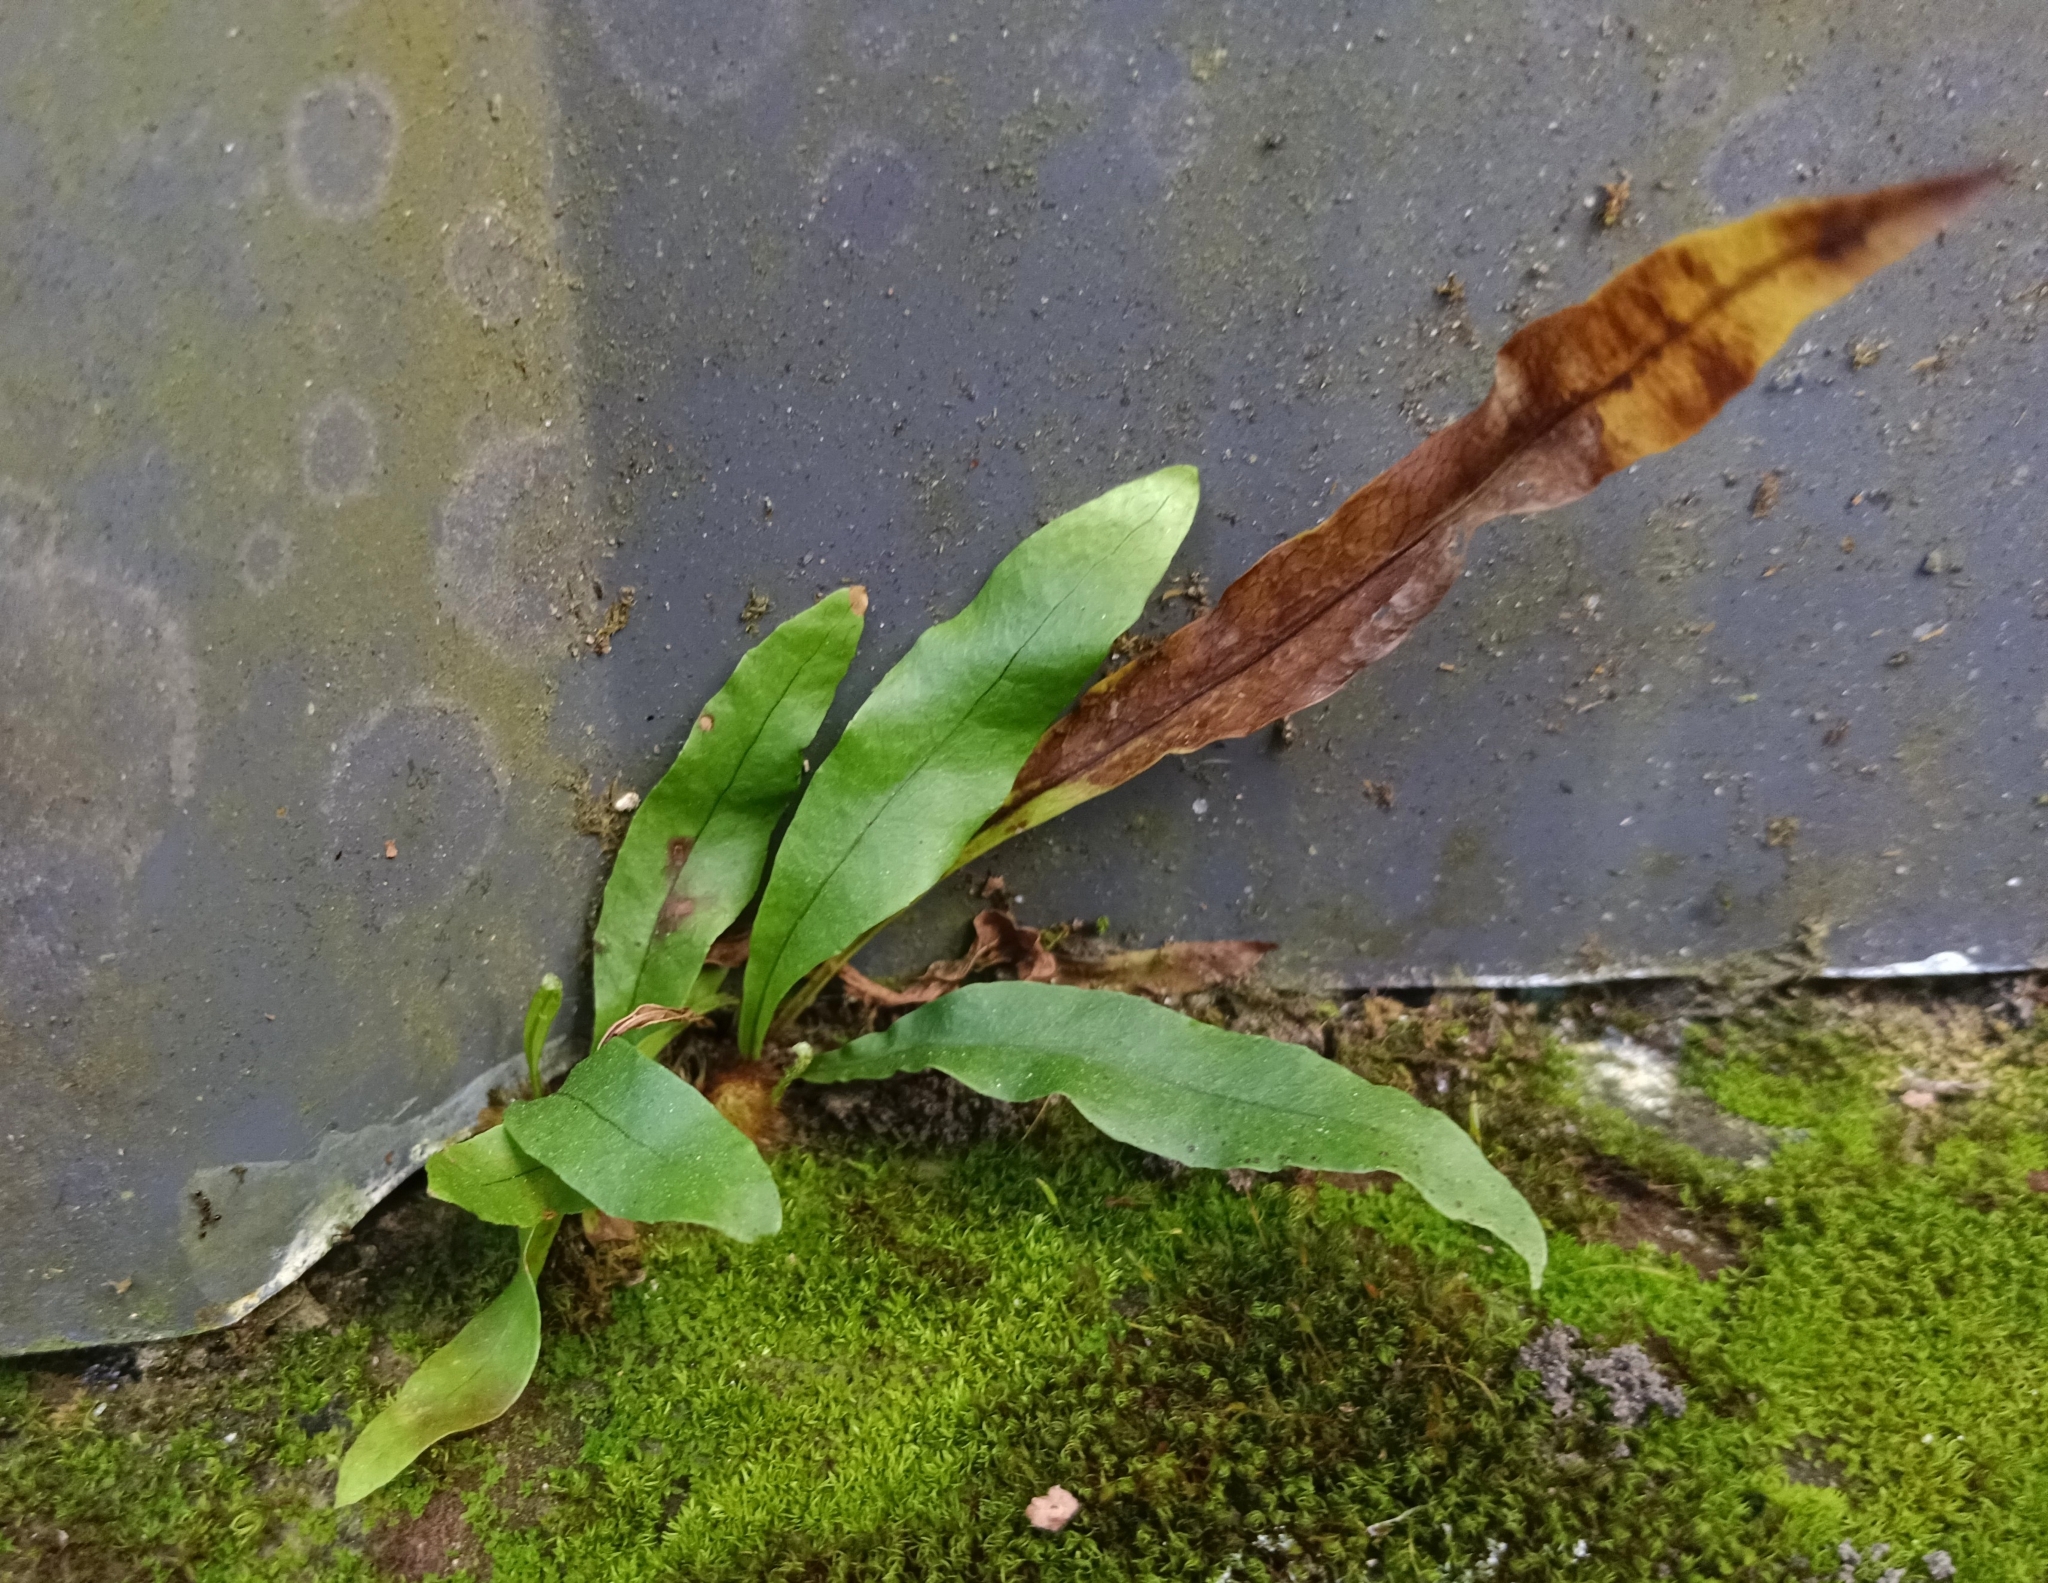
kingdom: Plantae
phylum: Tracheophyta
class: Polypodiopsida
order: Polypodiales
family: Polypodiaceae
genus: Drynaria
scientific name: Drynaria quercifolia
